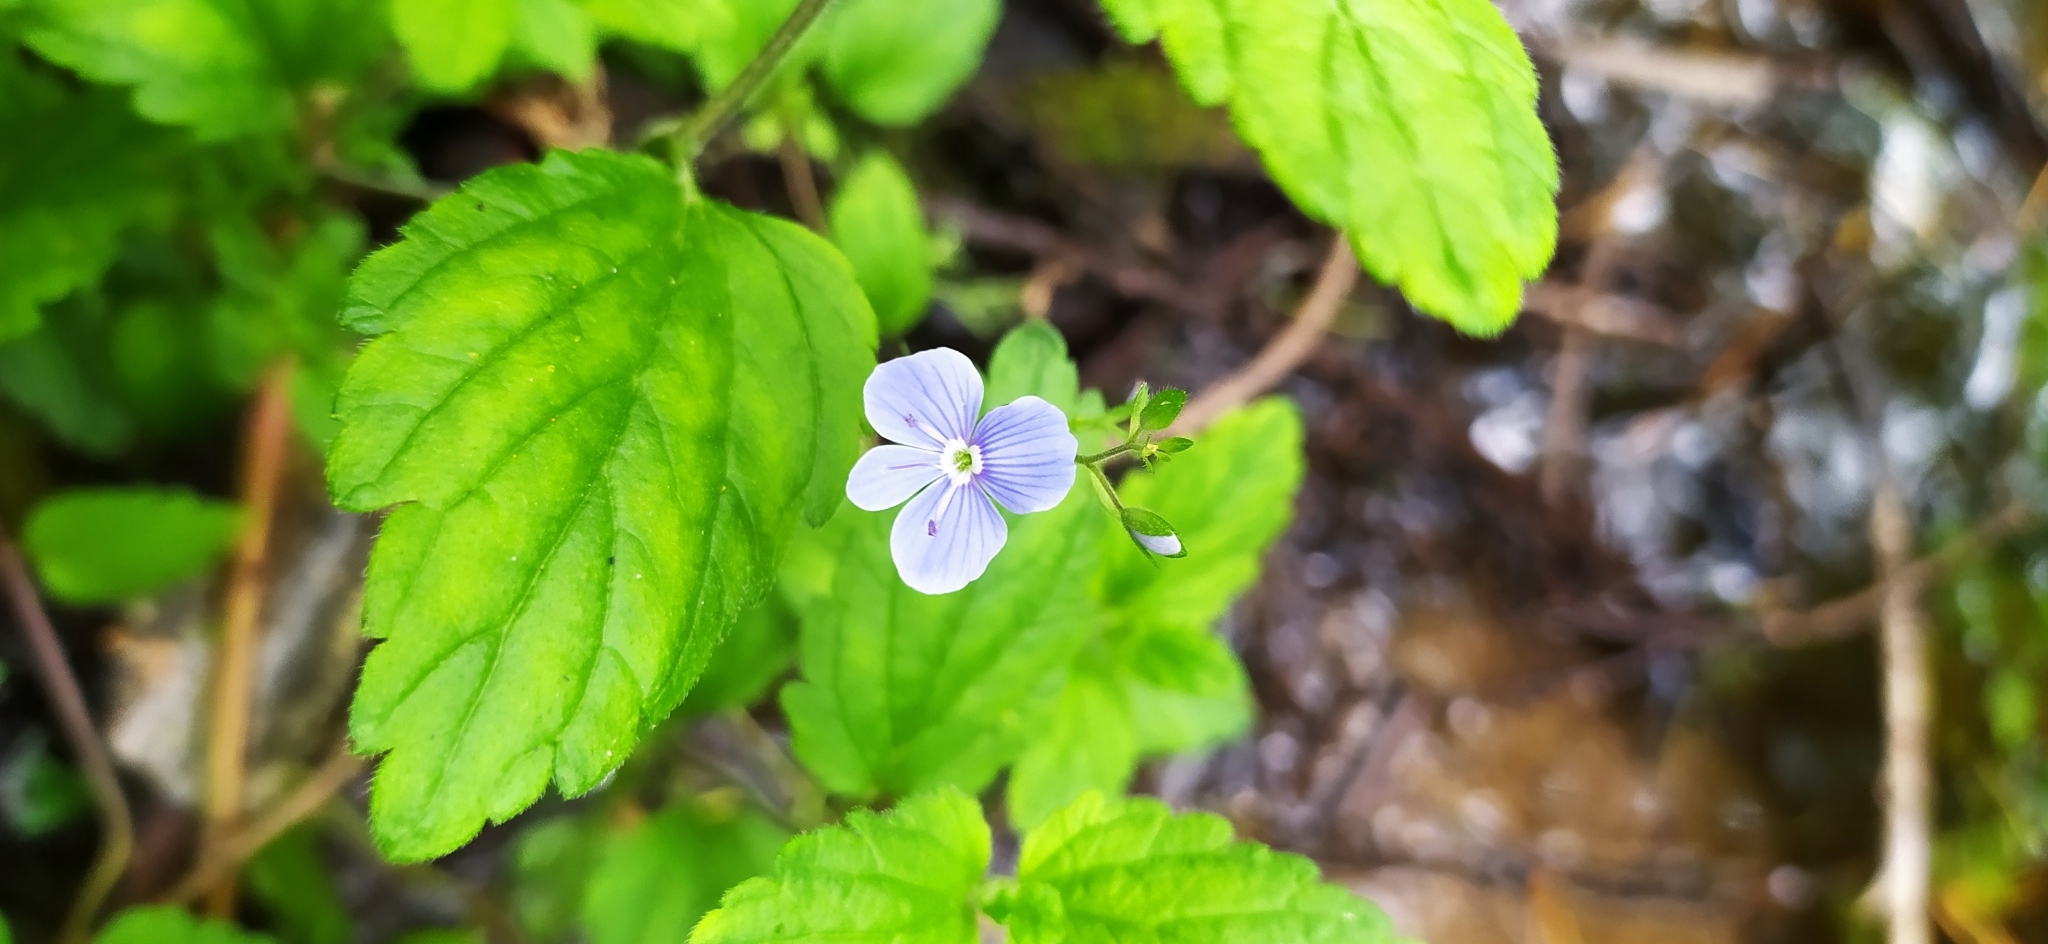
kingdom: Plantae
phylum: Tracheophyta
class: Magnoliopsida
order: Lamiales
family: Plantaginaceae
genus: Veronica
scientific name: Veronica chamaedrys
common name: Germander speedwell
